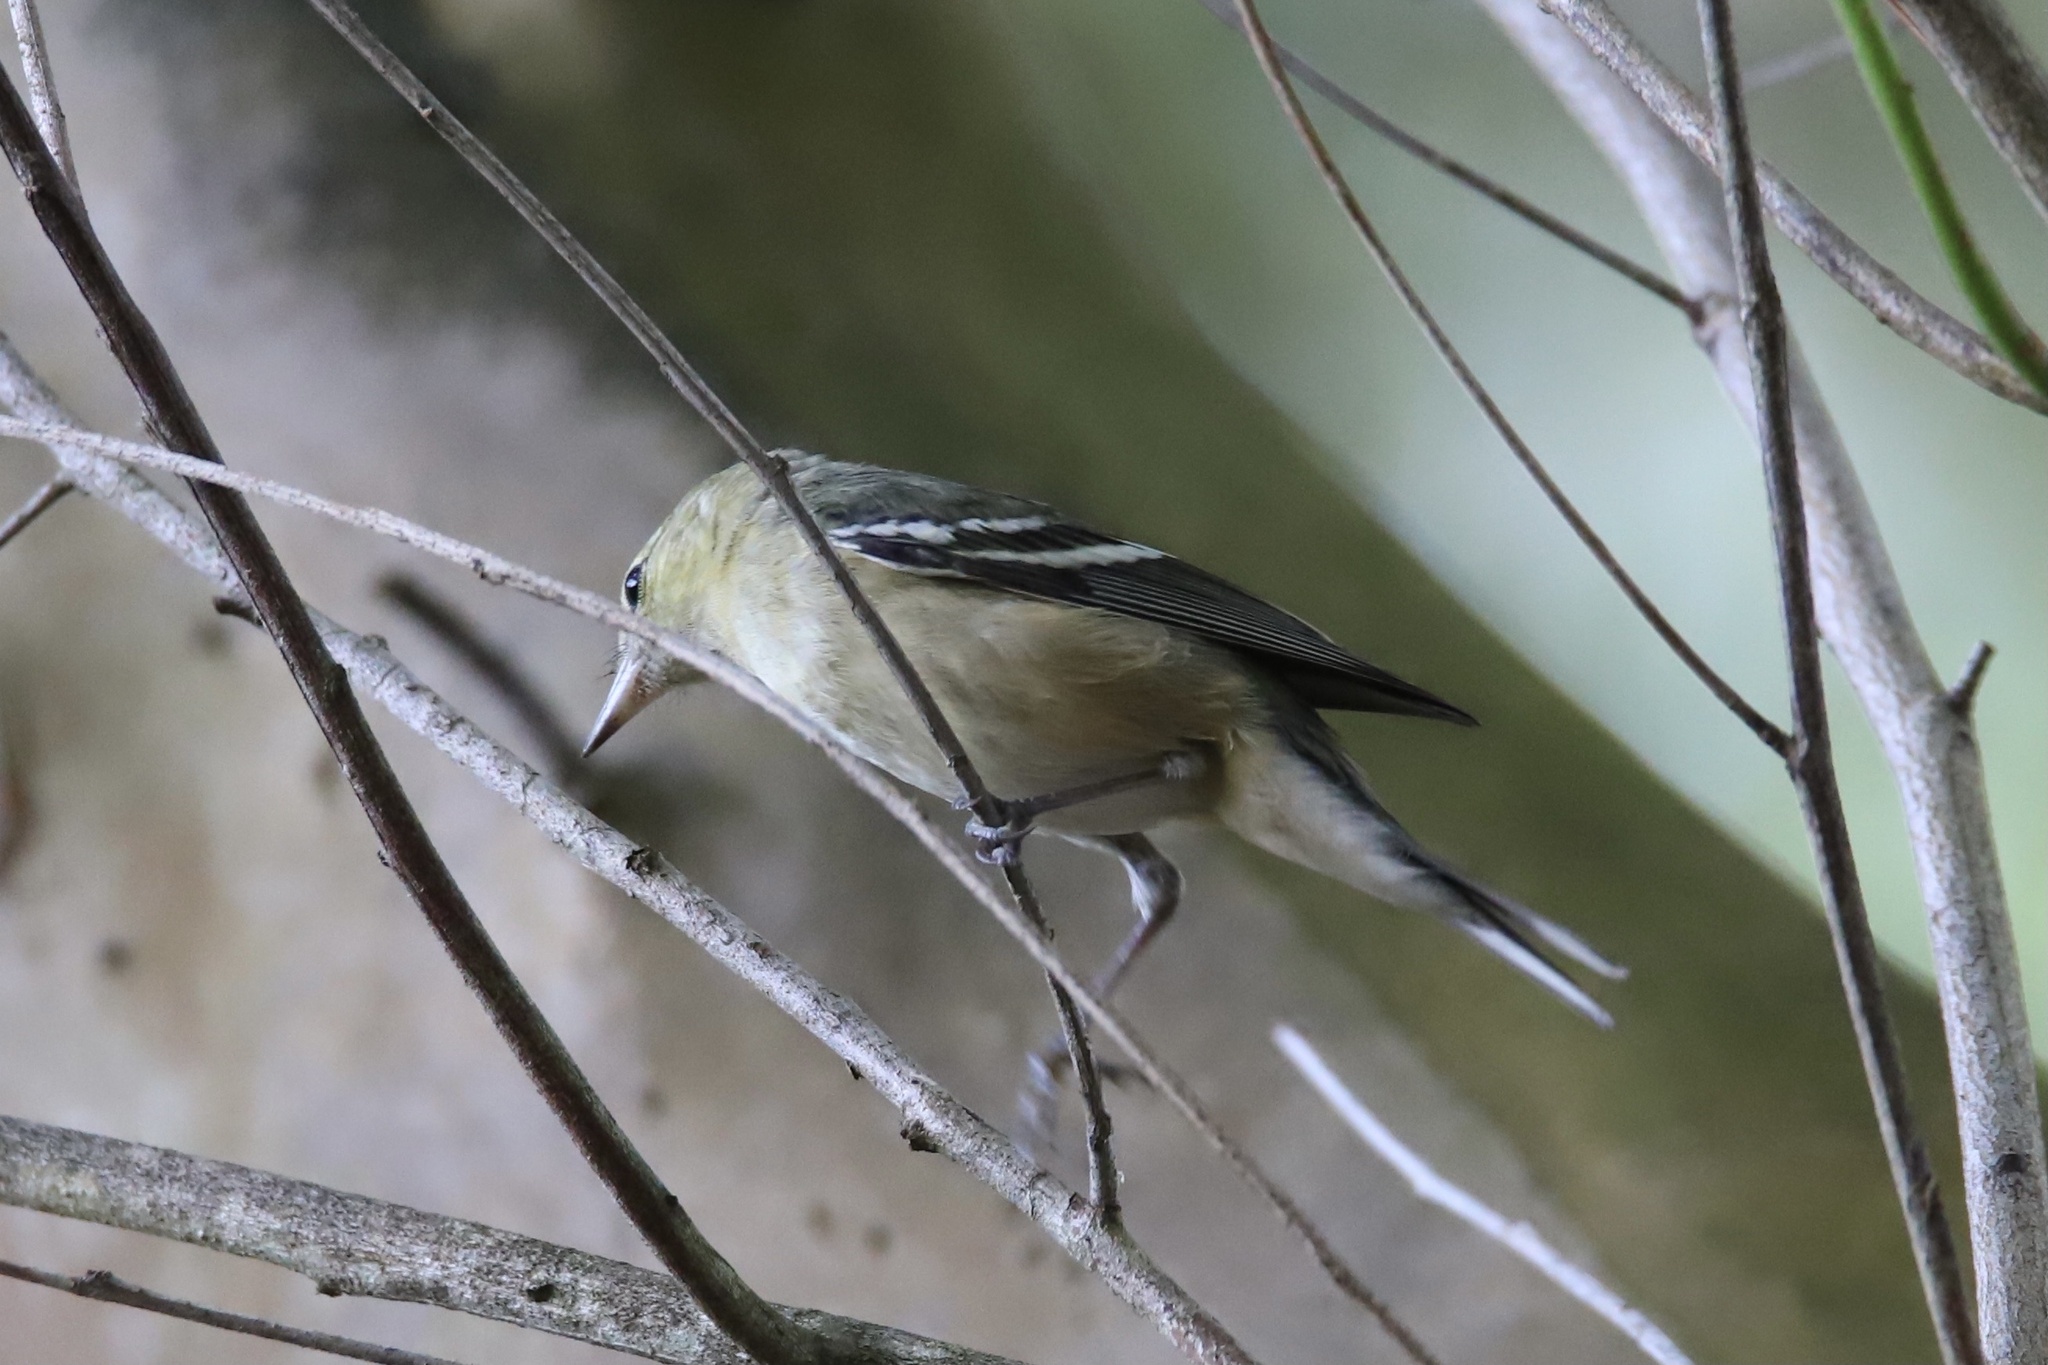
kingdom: Animalia
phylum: Chordata
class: Aves
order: Passeriformes
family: Parulidae
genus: Setophaga
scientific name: Setophaga castanea
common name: Bay-breasted warbler
